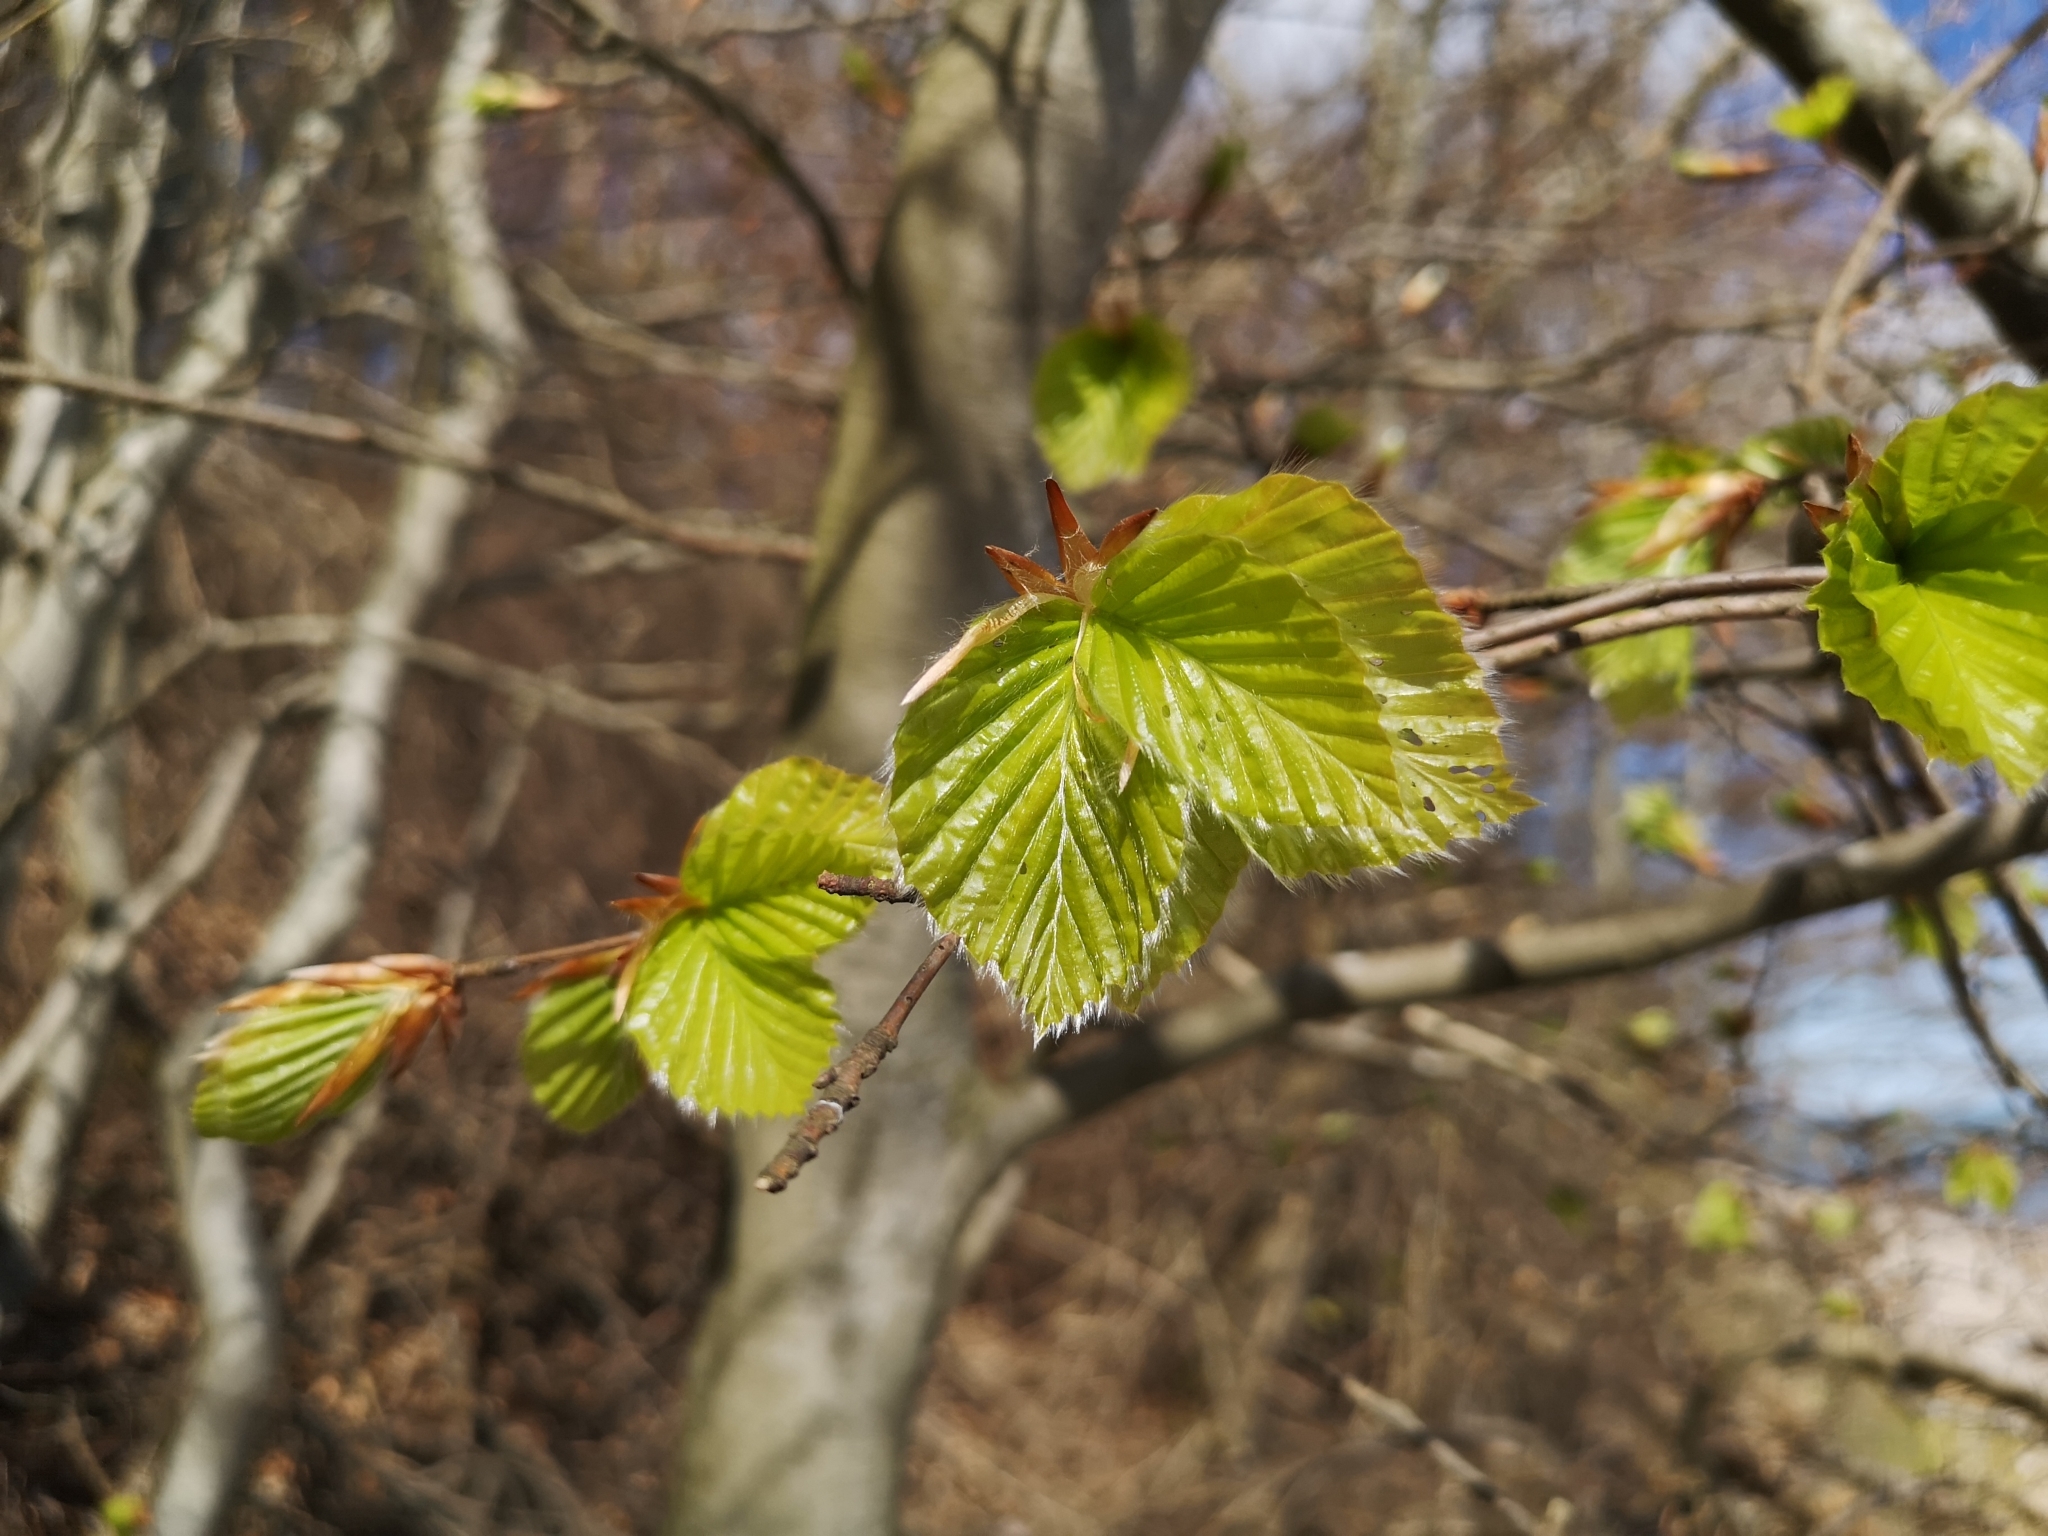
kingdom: Plantae
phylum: Tracheophyta
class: Magnoliopsida
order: Fagales
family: Fagaceae
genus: Fagus
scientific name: Fagus sylvatica
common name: Beech
